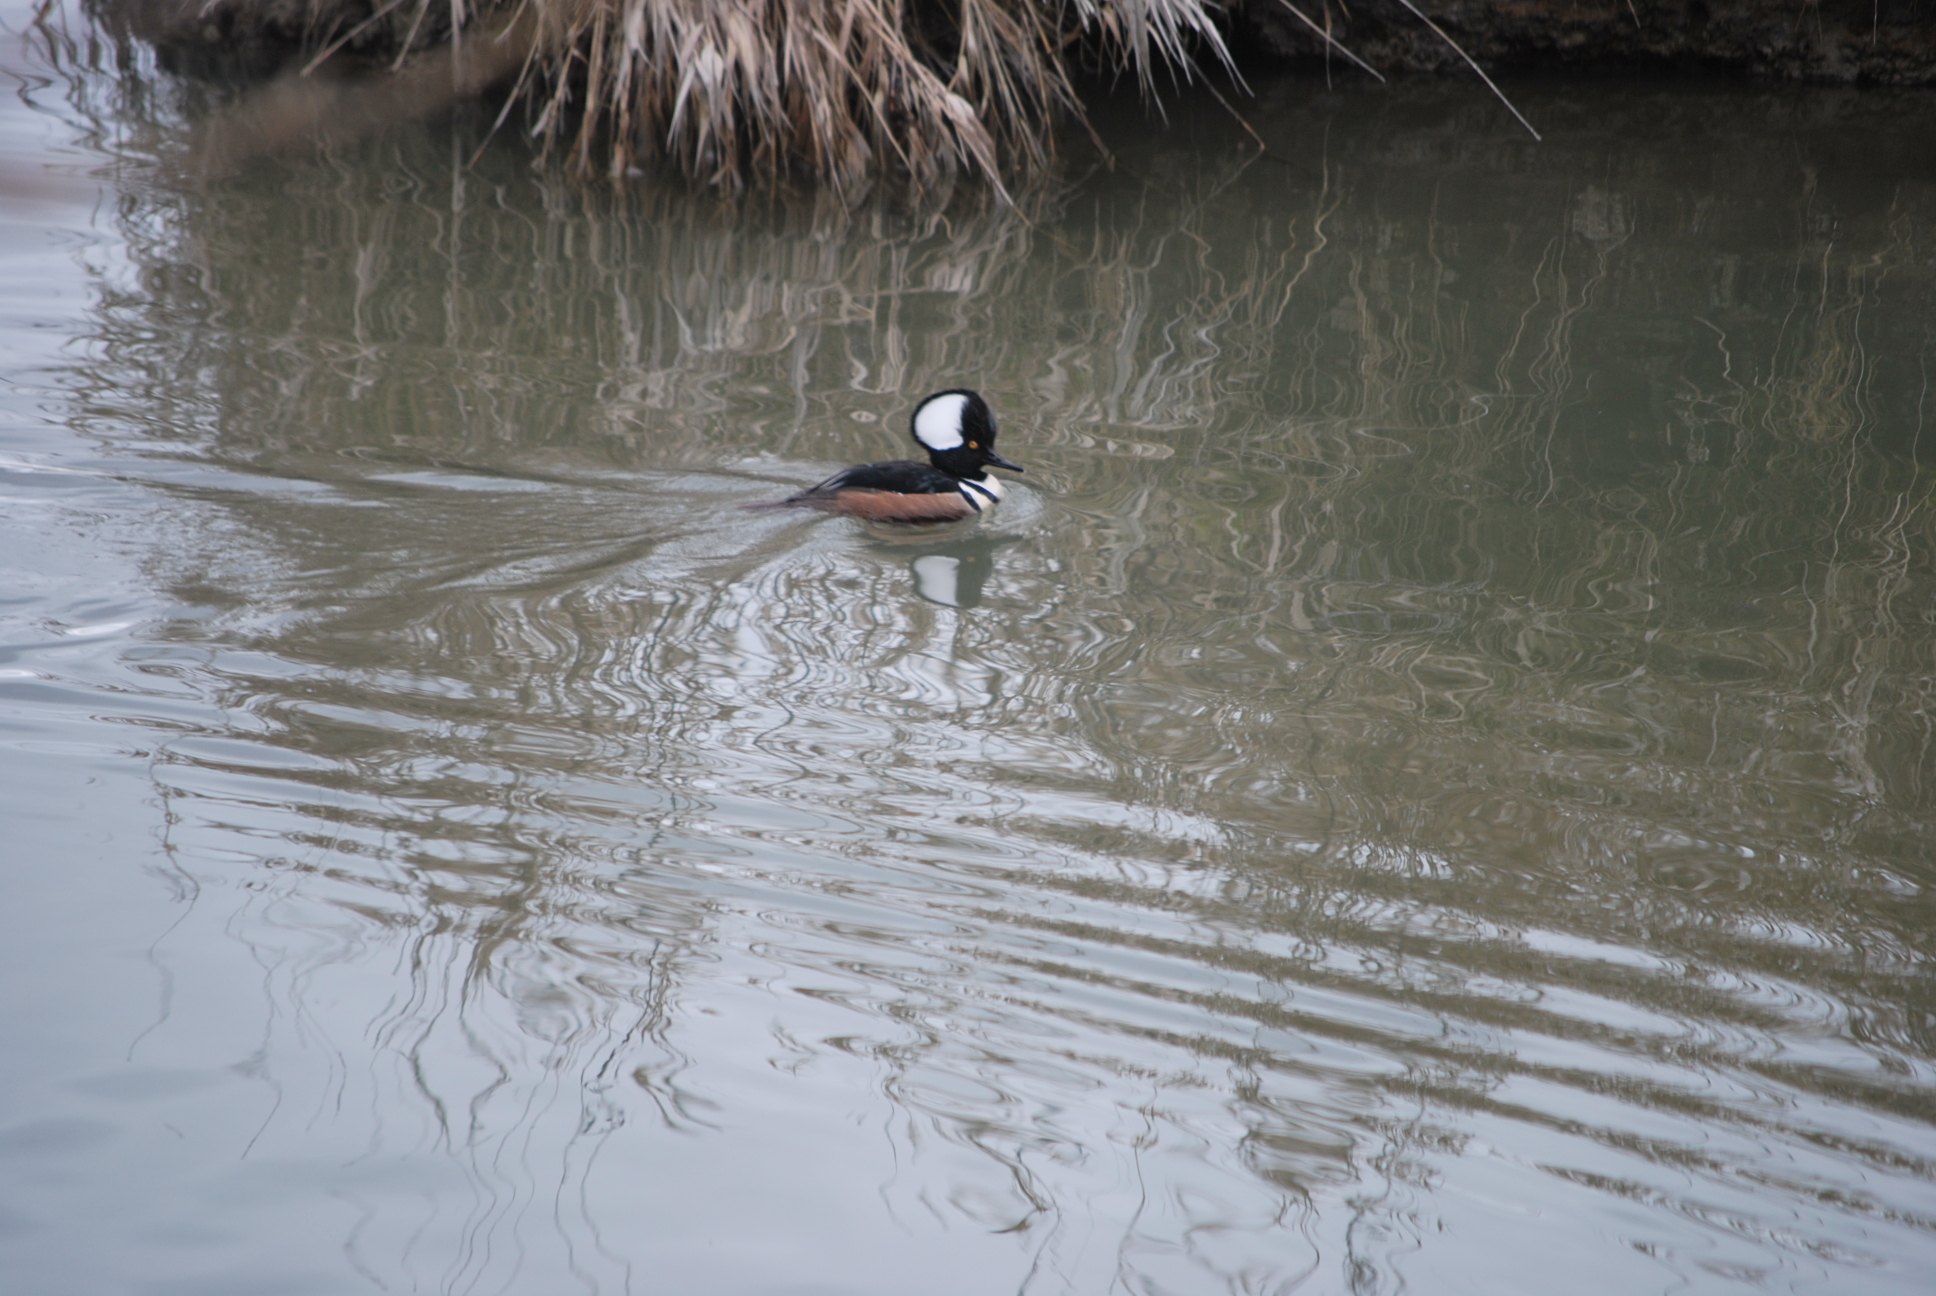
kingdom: Animalia
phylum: Chordata
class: Aves
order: Anseriformes
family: Anatidae
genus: Lophodytes
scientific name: Lophodytes cucullatus
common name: Hooded merganser
